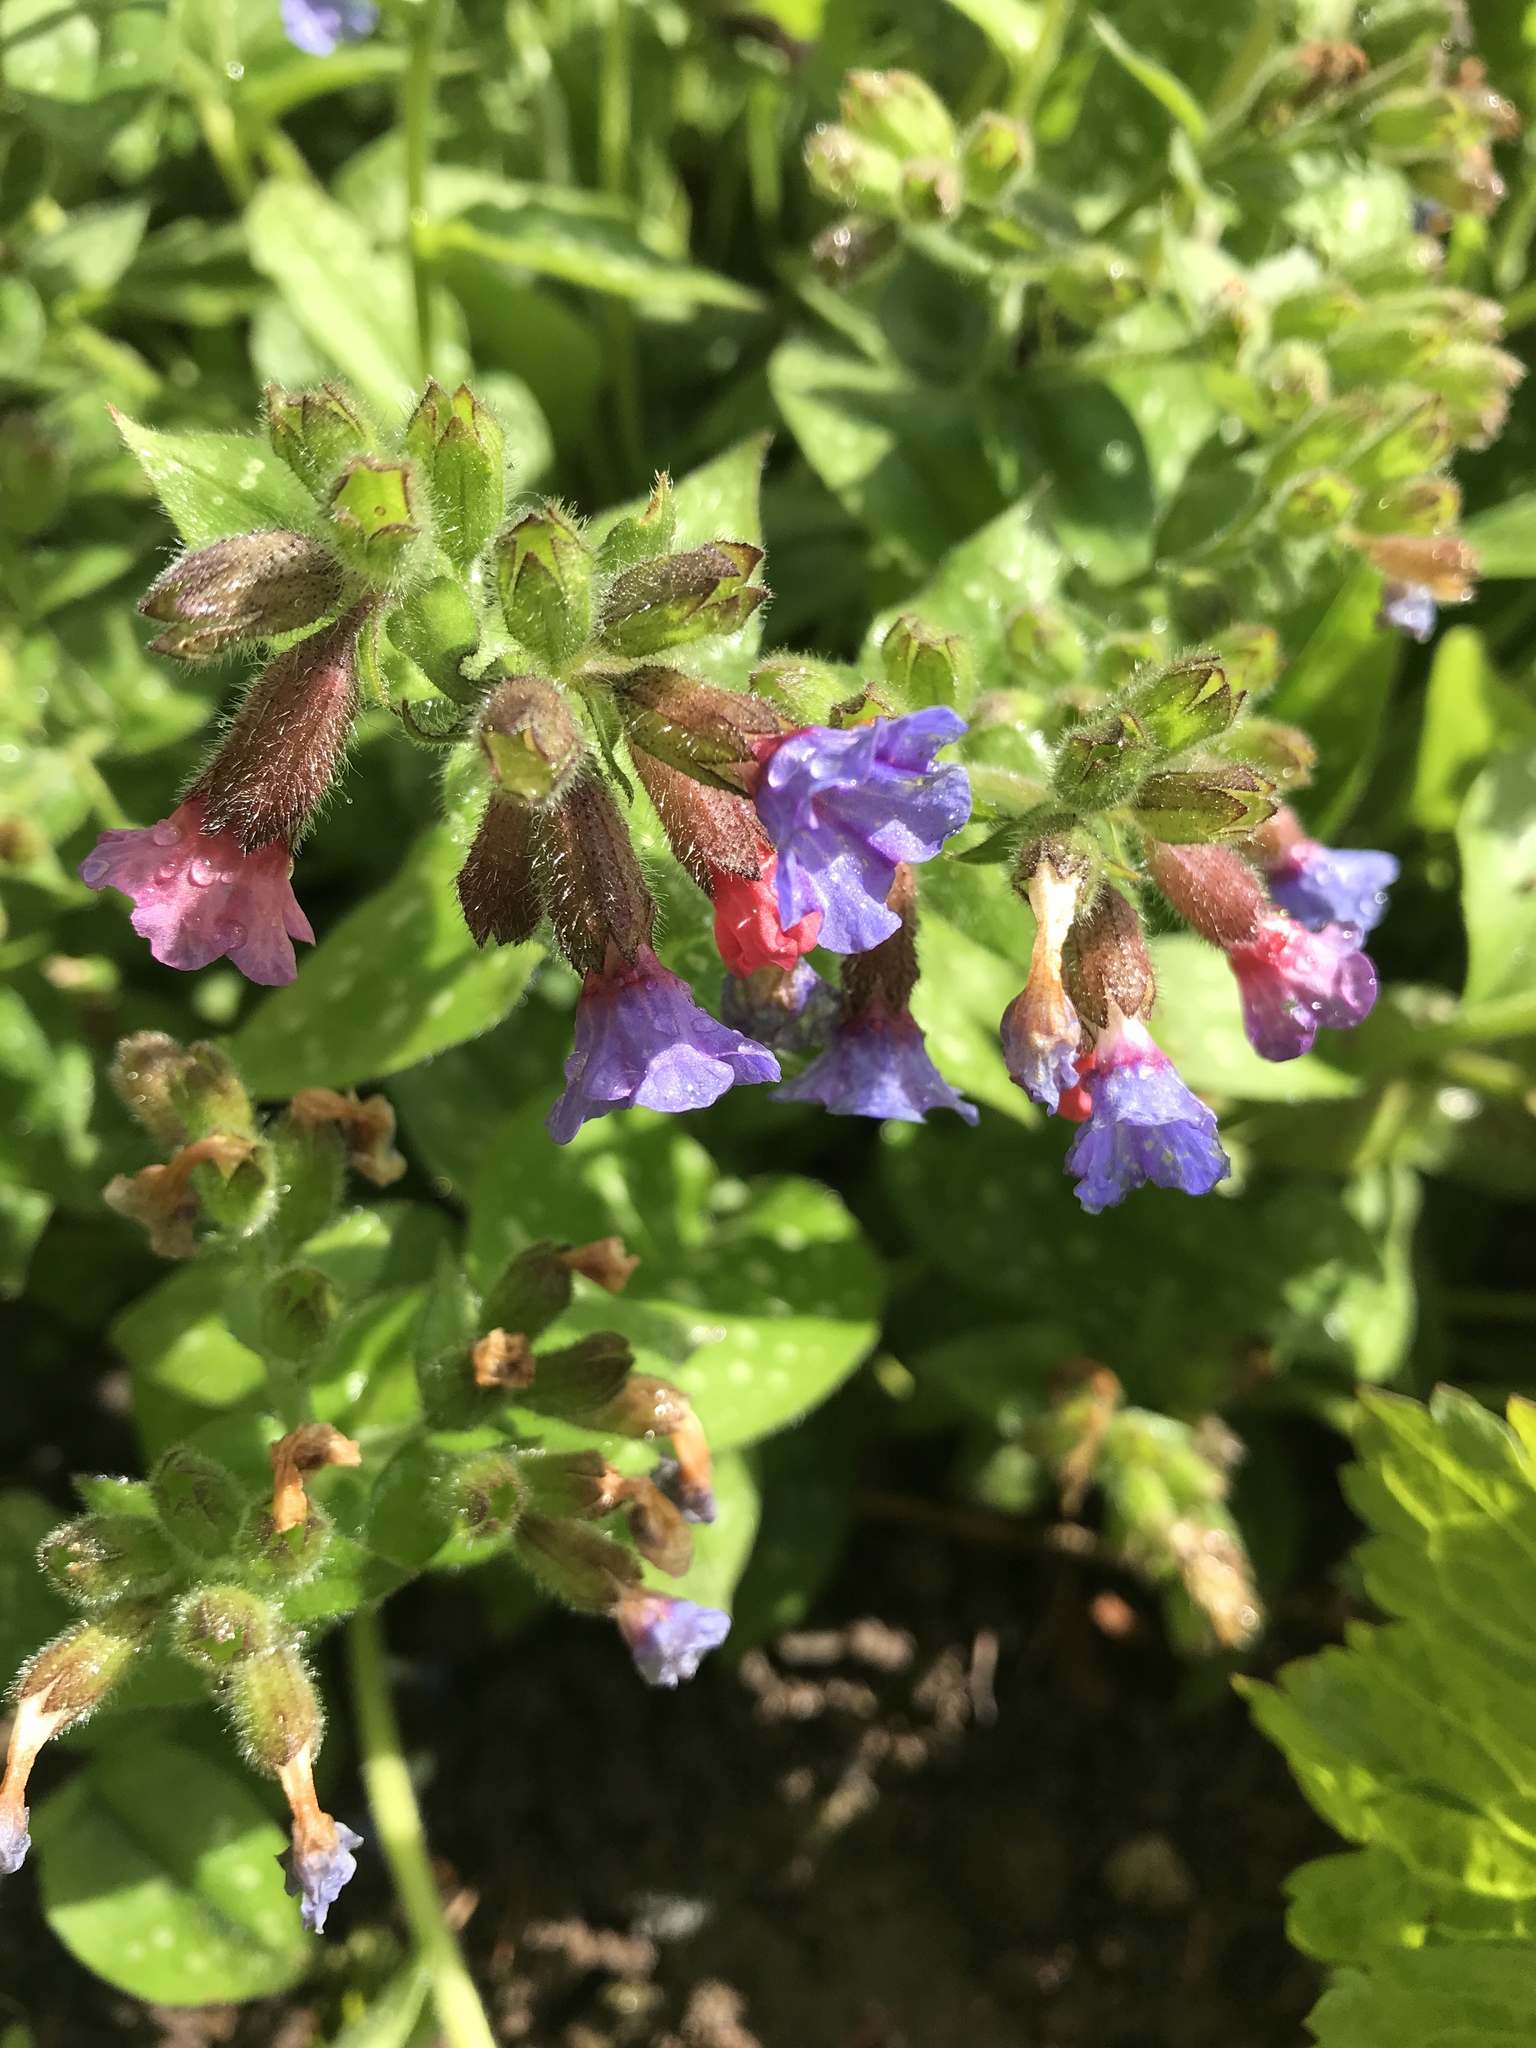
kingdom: Plantae
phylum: Tracheophyta
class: Magnoliopsida
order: Boraginales
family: Boraginaceae
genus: Pulmonaria
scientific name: Pulmonaria officinalis
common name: Lungwort
